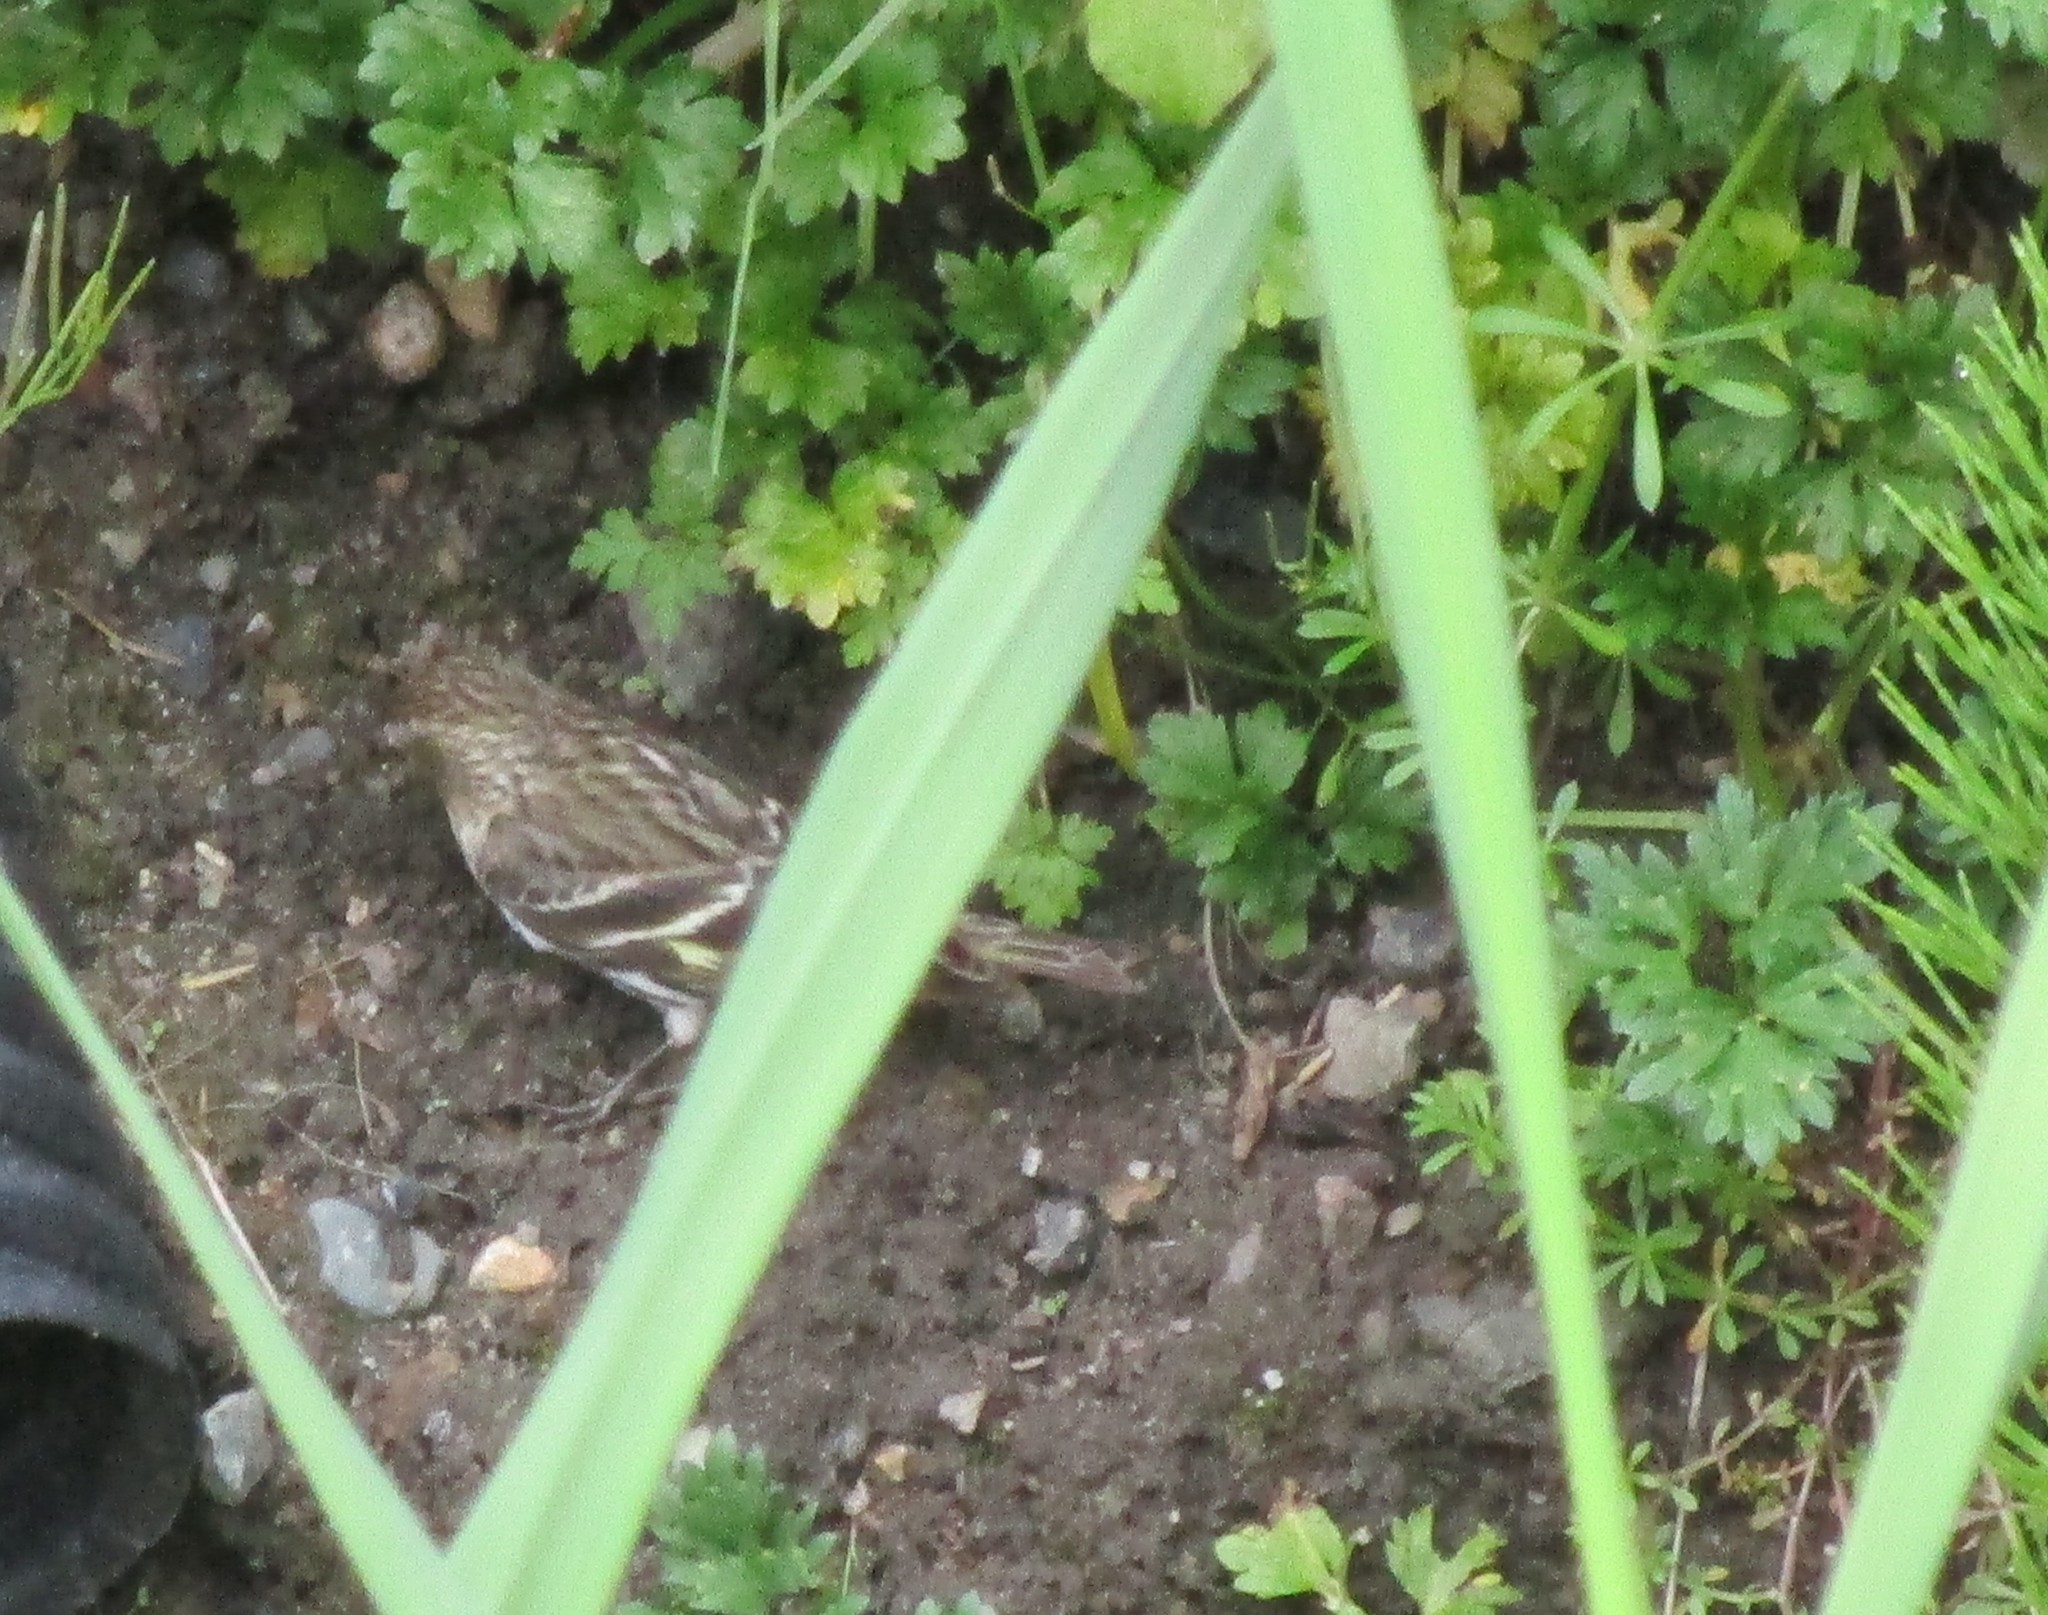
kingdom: Animalia
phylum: Chordata
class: Aves
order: Passeriformes
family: Fringillidae
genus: Spinus
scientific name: Spinus pinus
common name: Pine siskin
